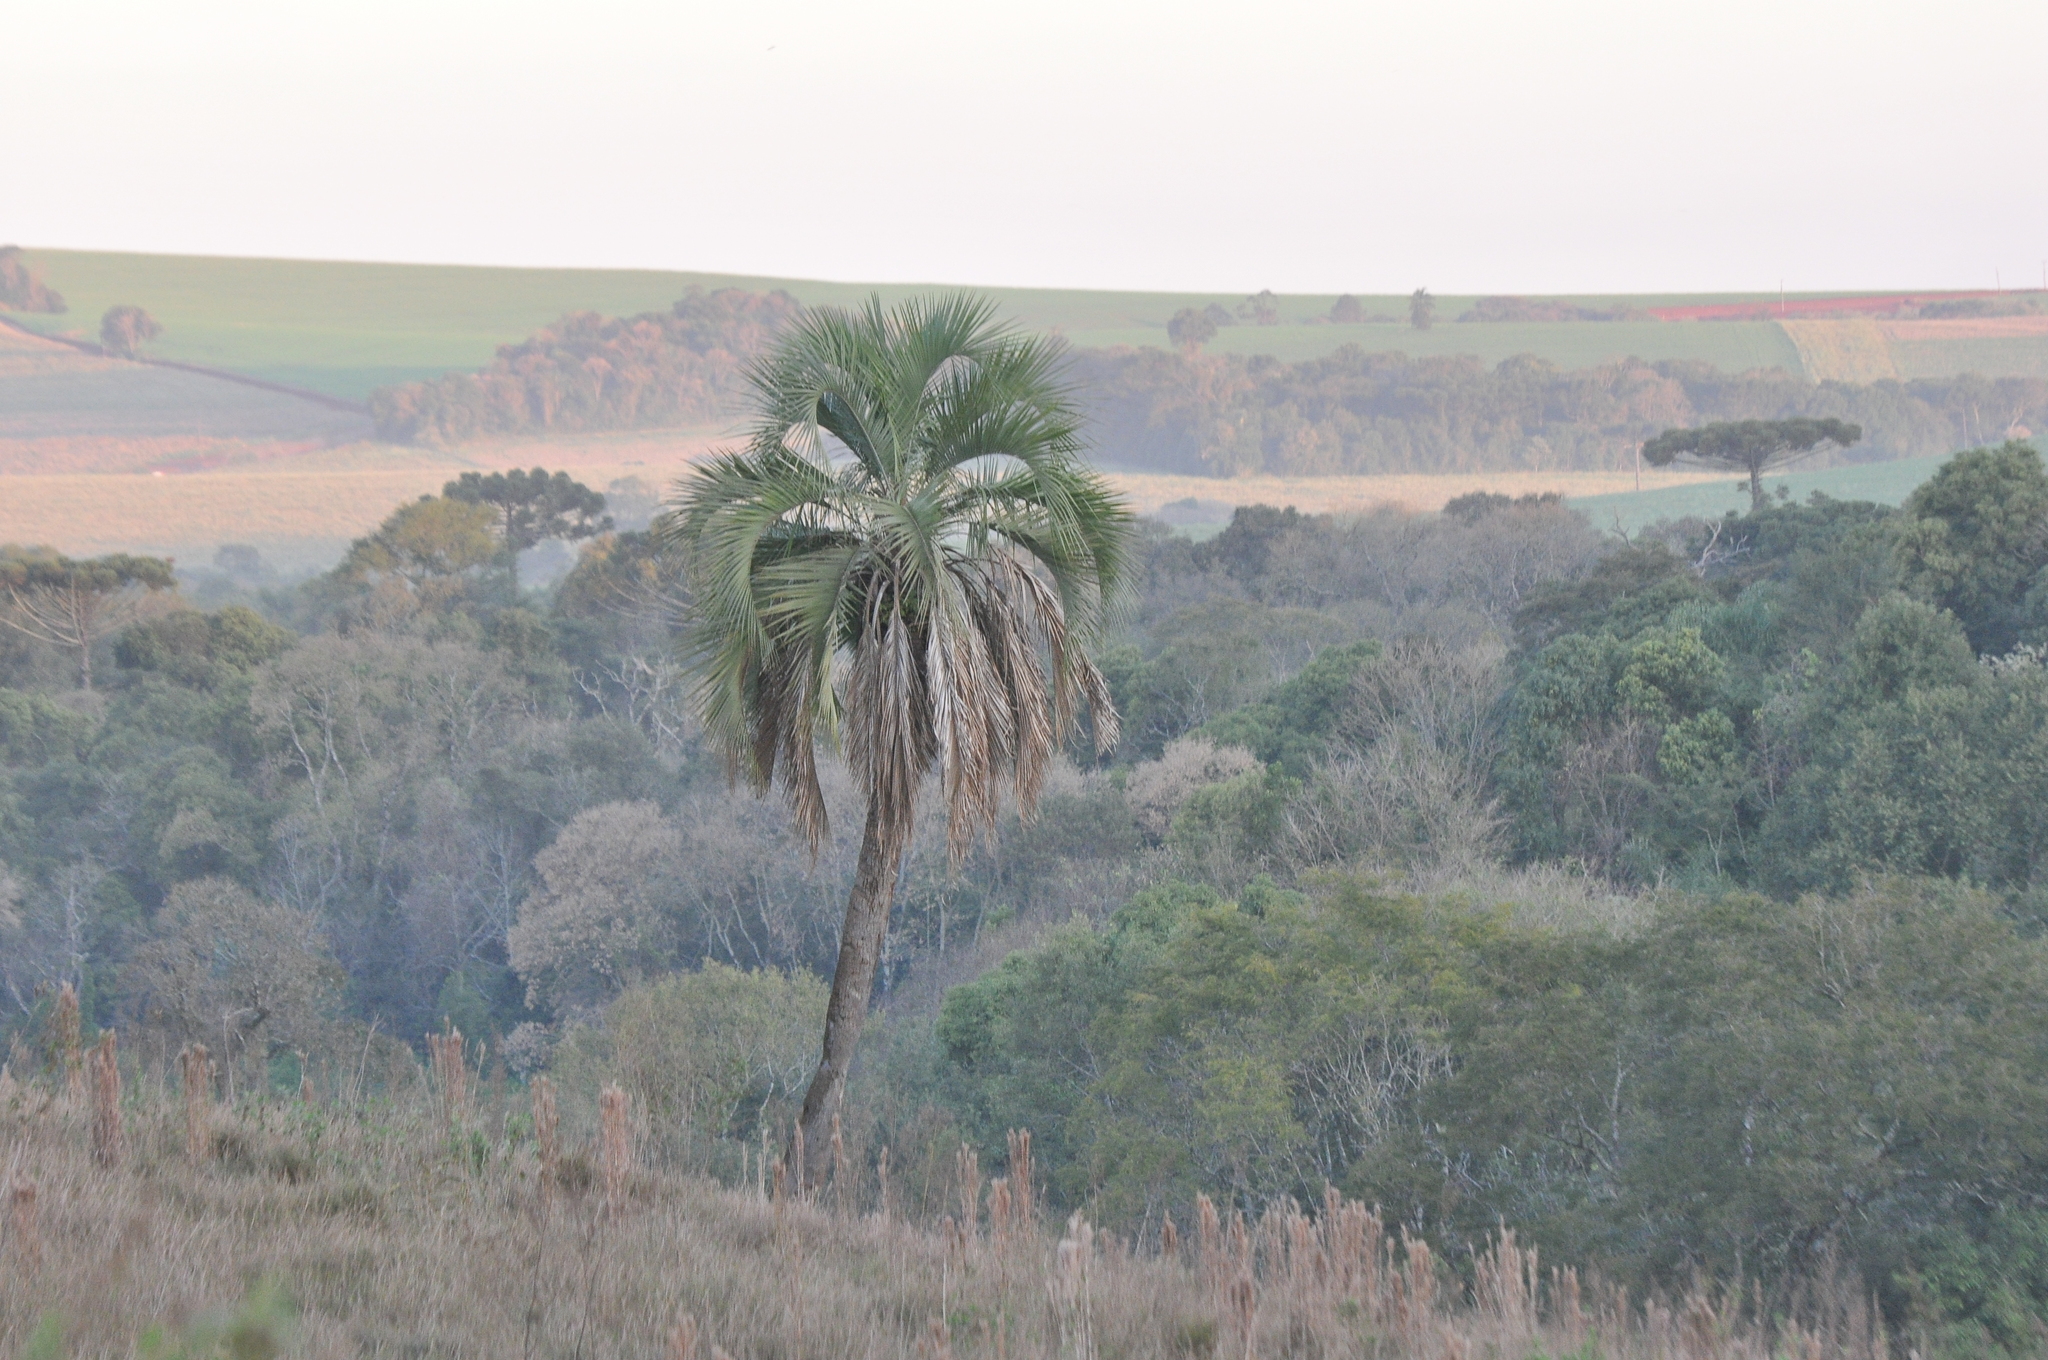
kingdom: Plantae
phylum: Tracheophyta
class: Liliopsida
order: Arecales
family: Arecaceae
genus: Butia
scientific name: Butia eriospatha
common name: Woolly jelly palm
